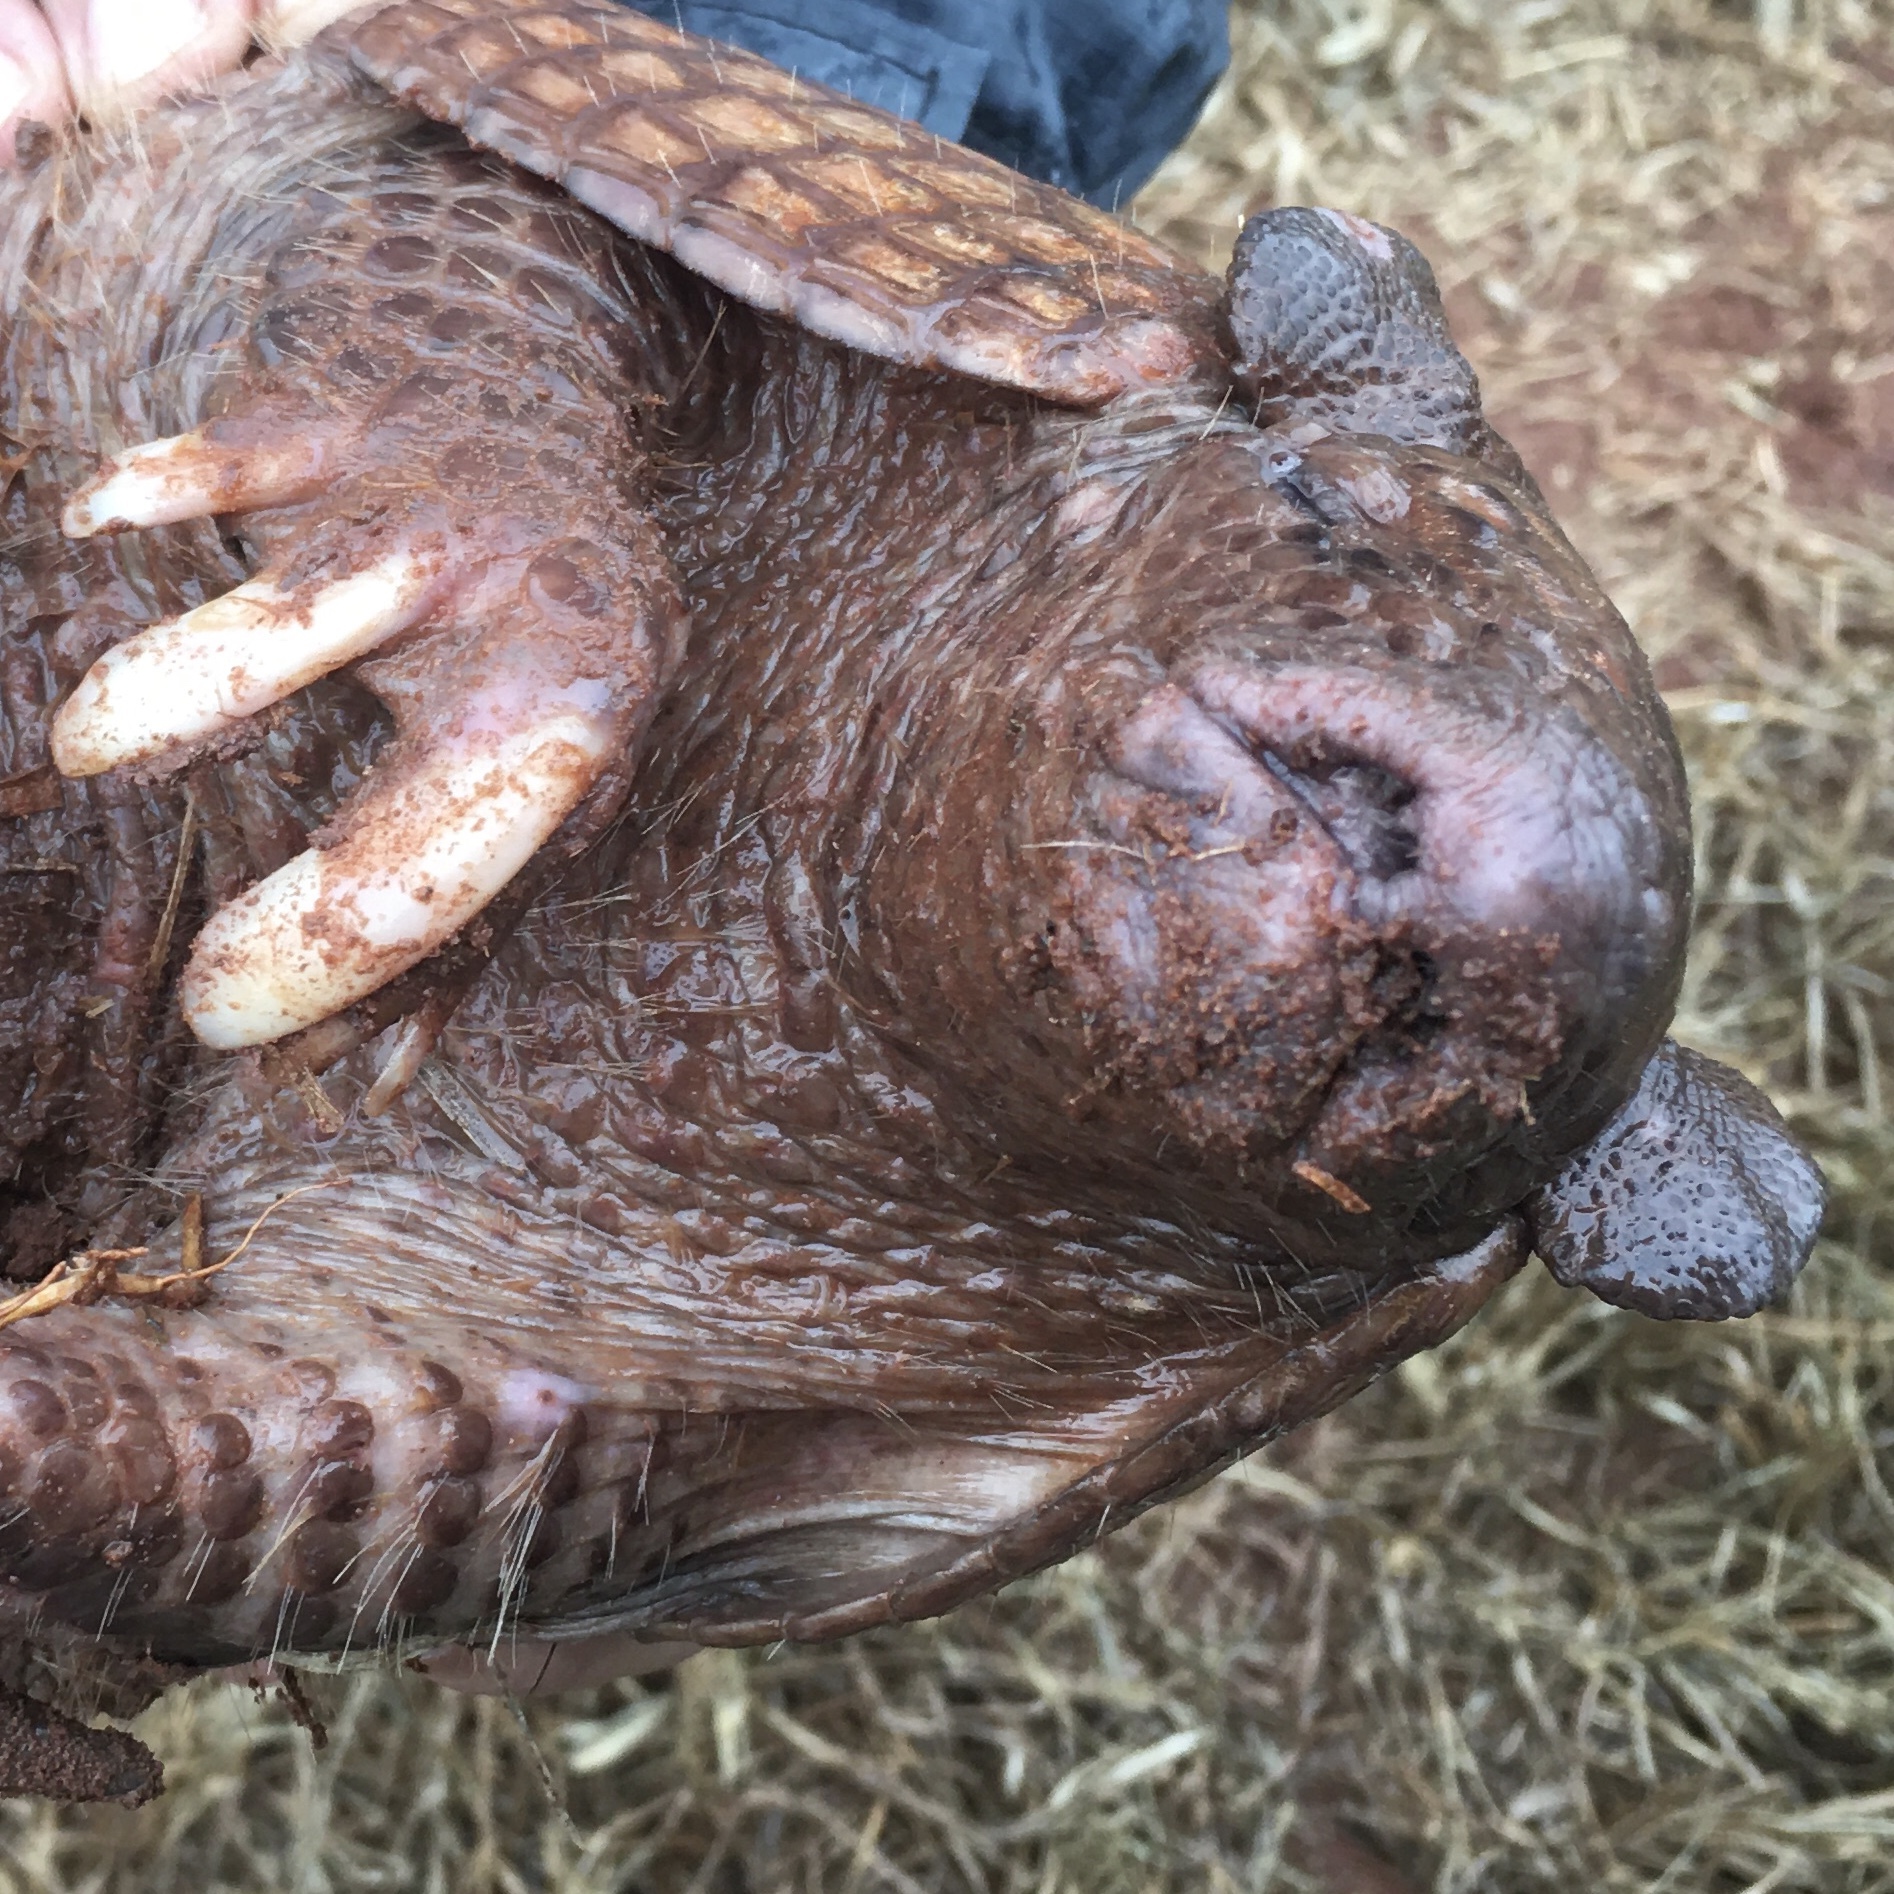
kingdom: Animalia
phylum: Chordata
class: Mammalia
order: Cingulata
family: Dasypodidae
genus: Cabassous
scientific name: Cabassous unicinctus
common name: Southern naked-tailed armadillo
